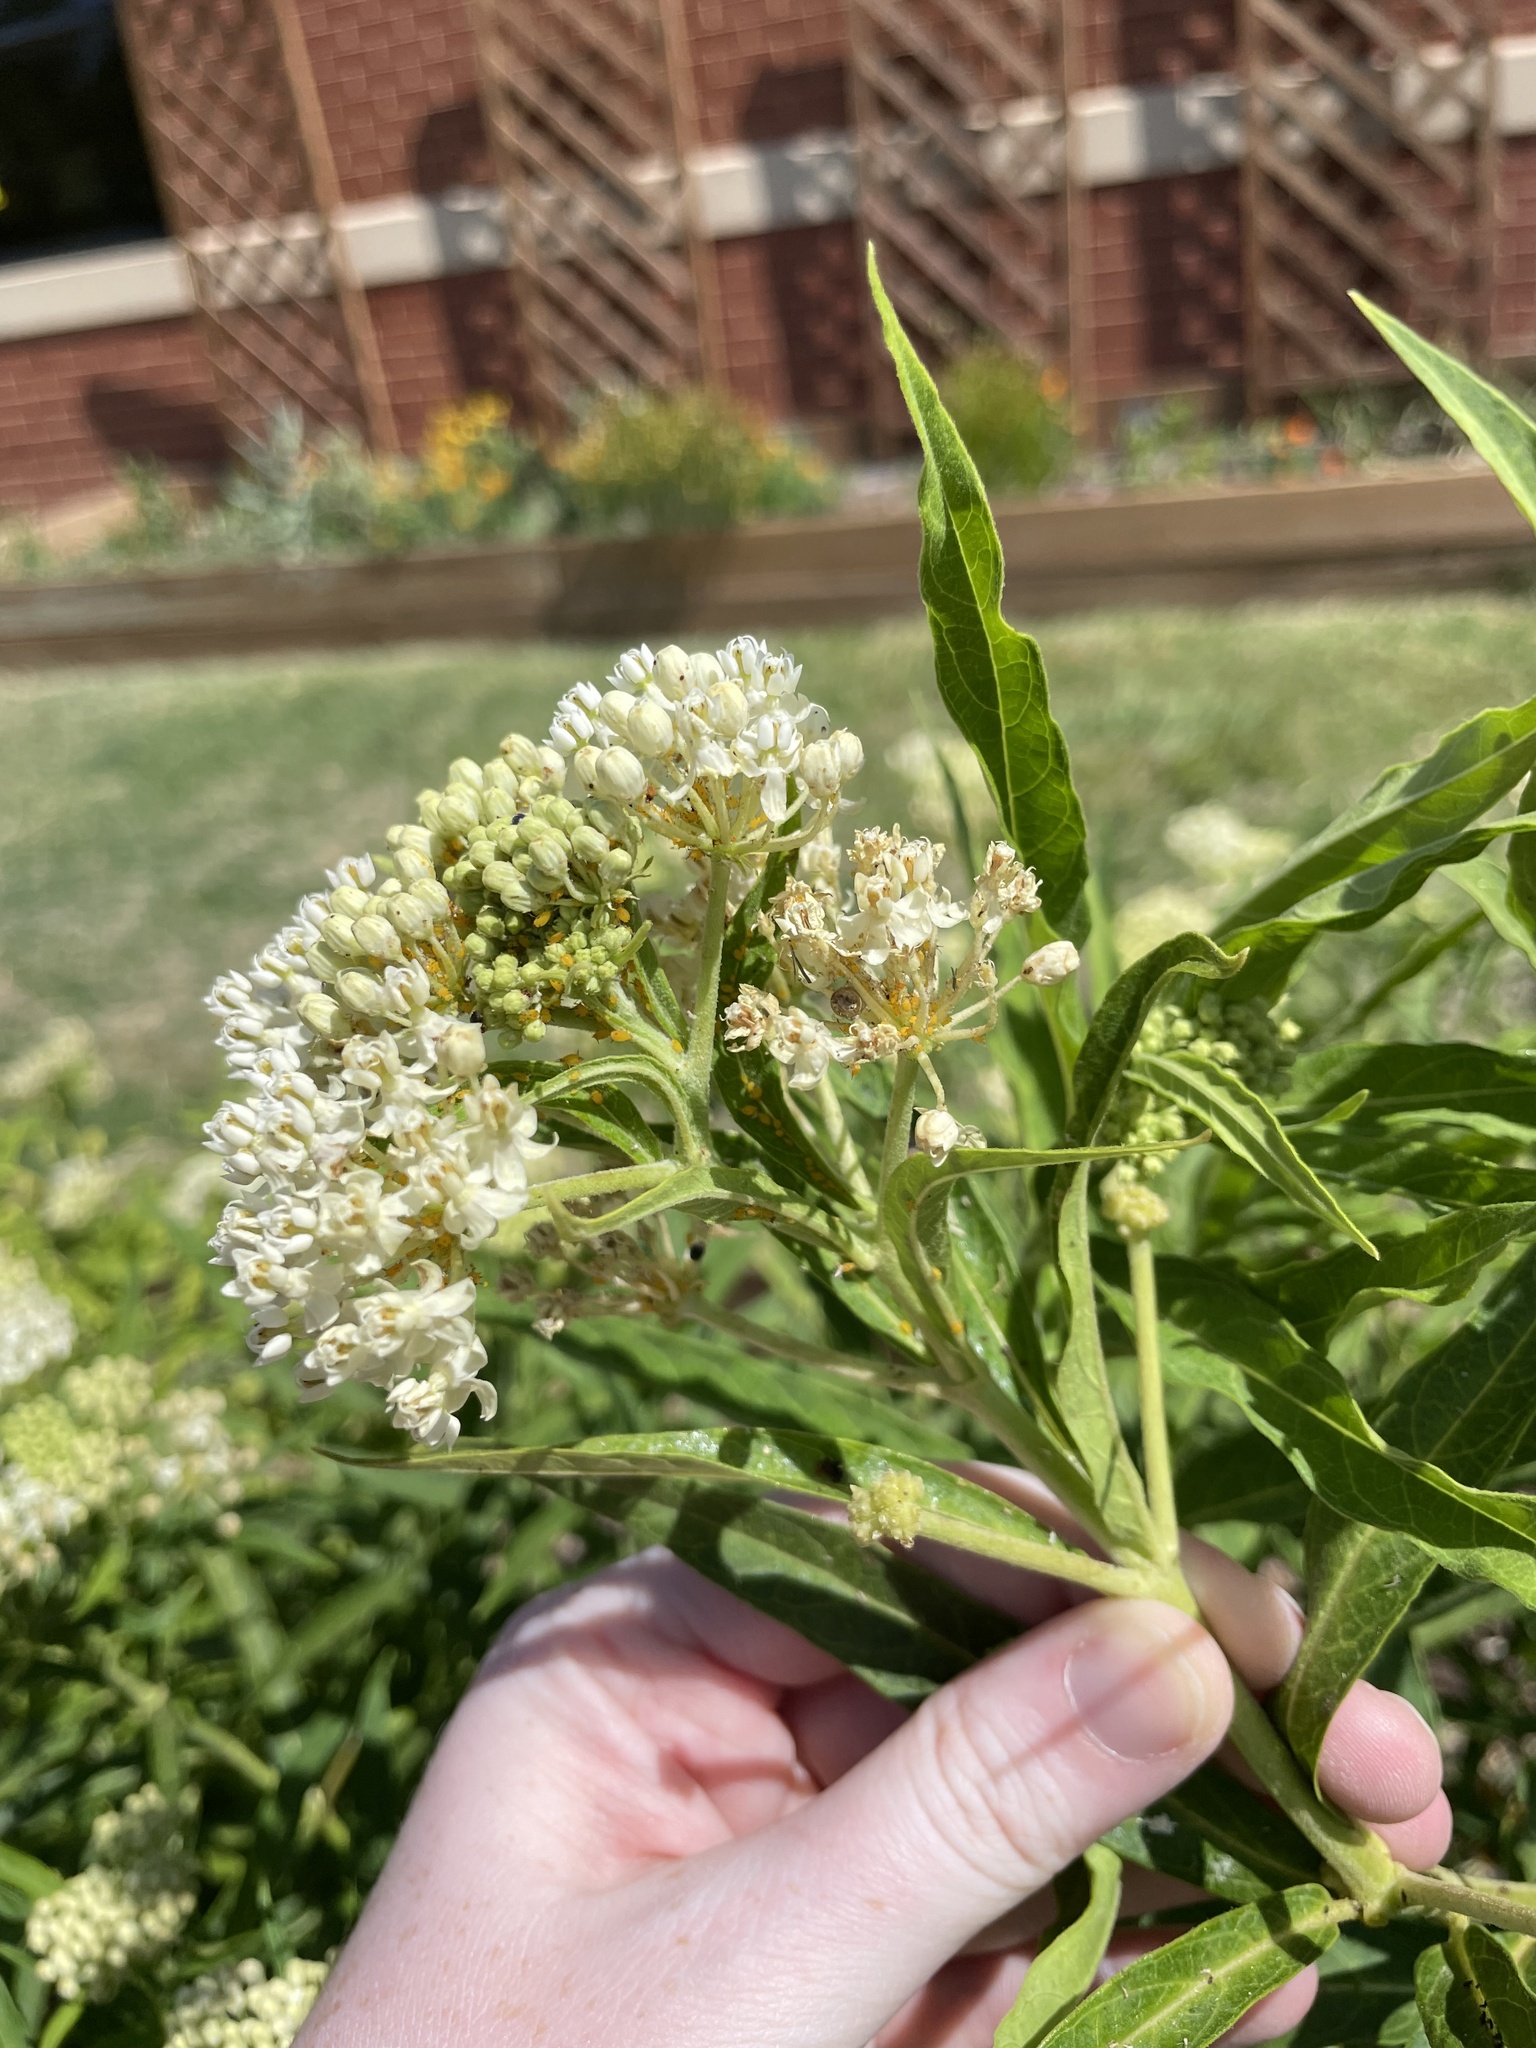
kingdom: Animalia
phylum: Arthropoda
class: Insecta
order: Hemiptera
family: Aphididae
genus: Aphis
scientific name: Aphis nerii
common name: Oleander aphid
